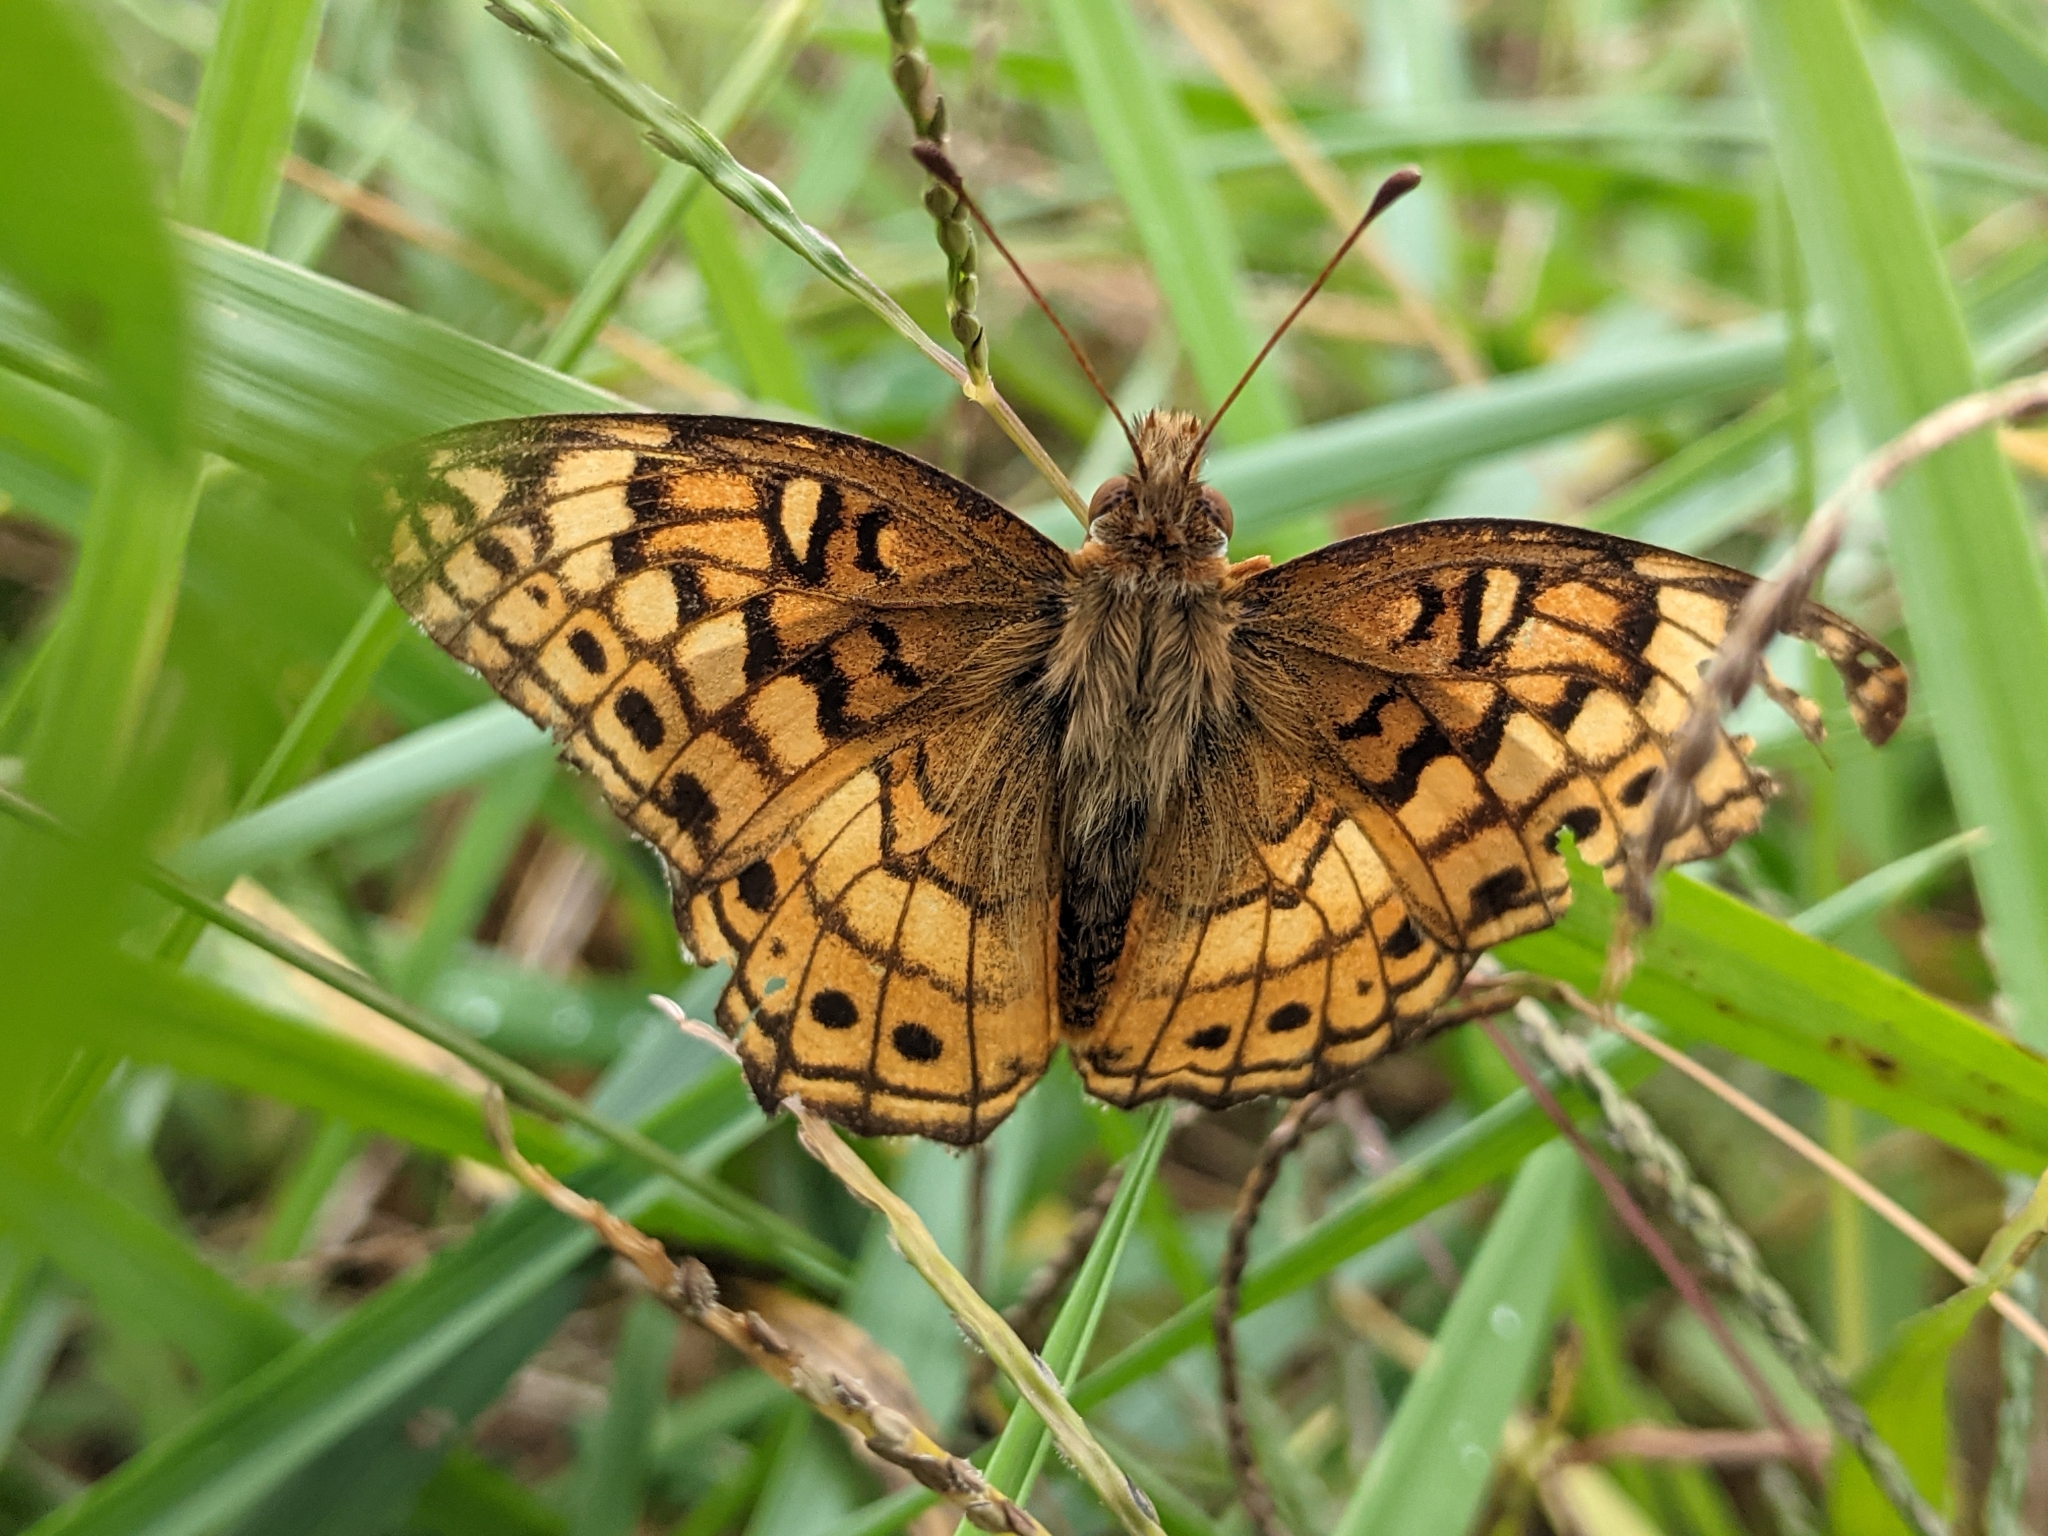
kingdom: Animalia
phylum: Arthropoda
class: Insecta
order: Lepidoptera
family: Nymphalidae
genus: Euptoieta
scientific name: Euptoieta claudia
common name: Variegated fritillary
